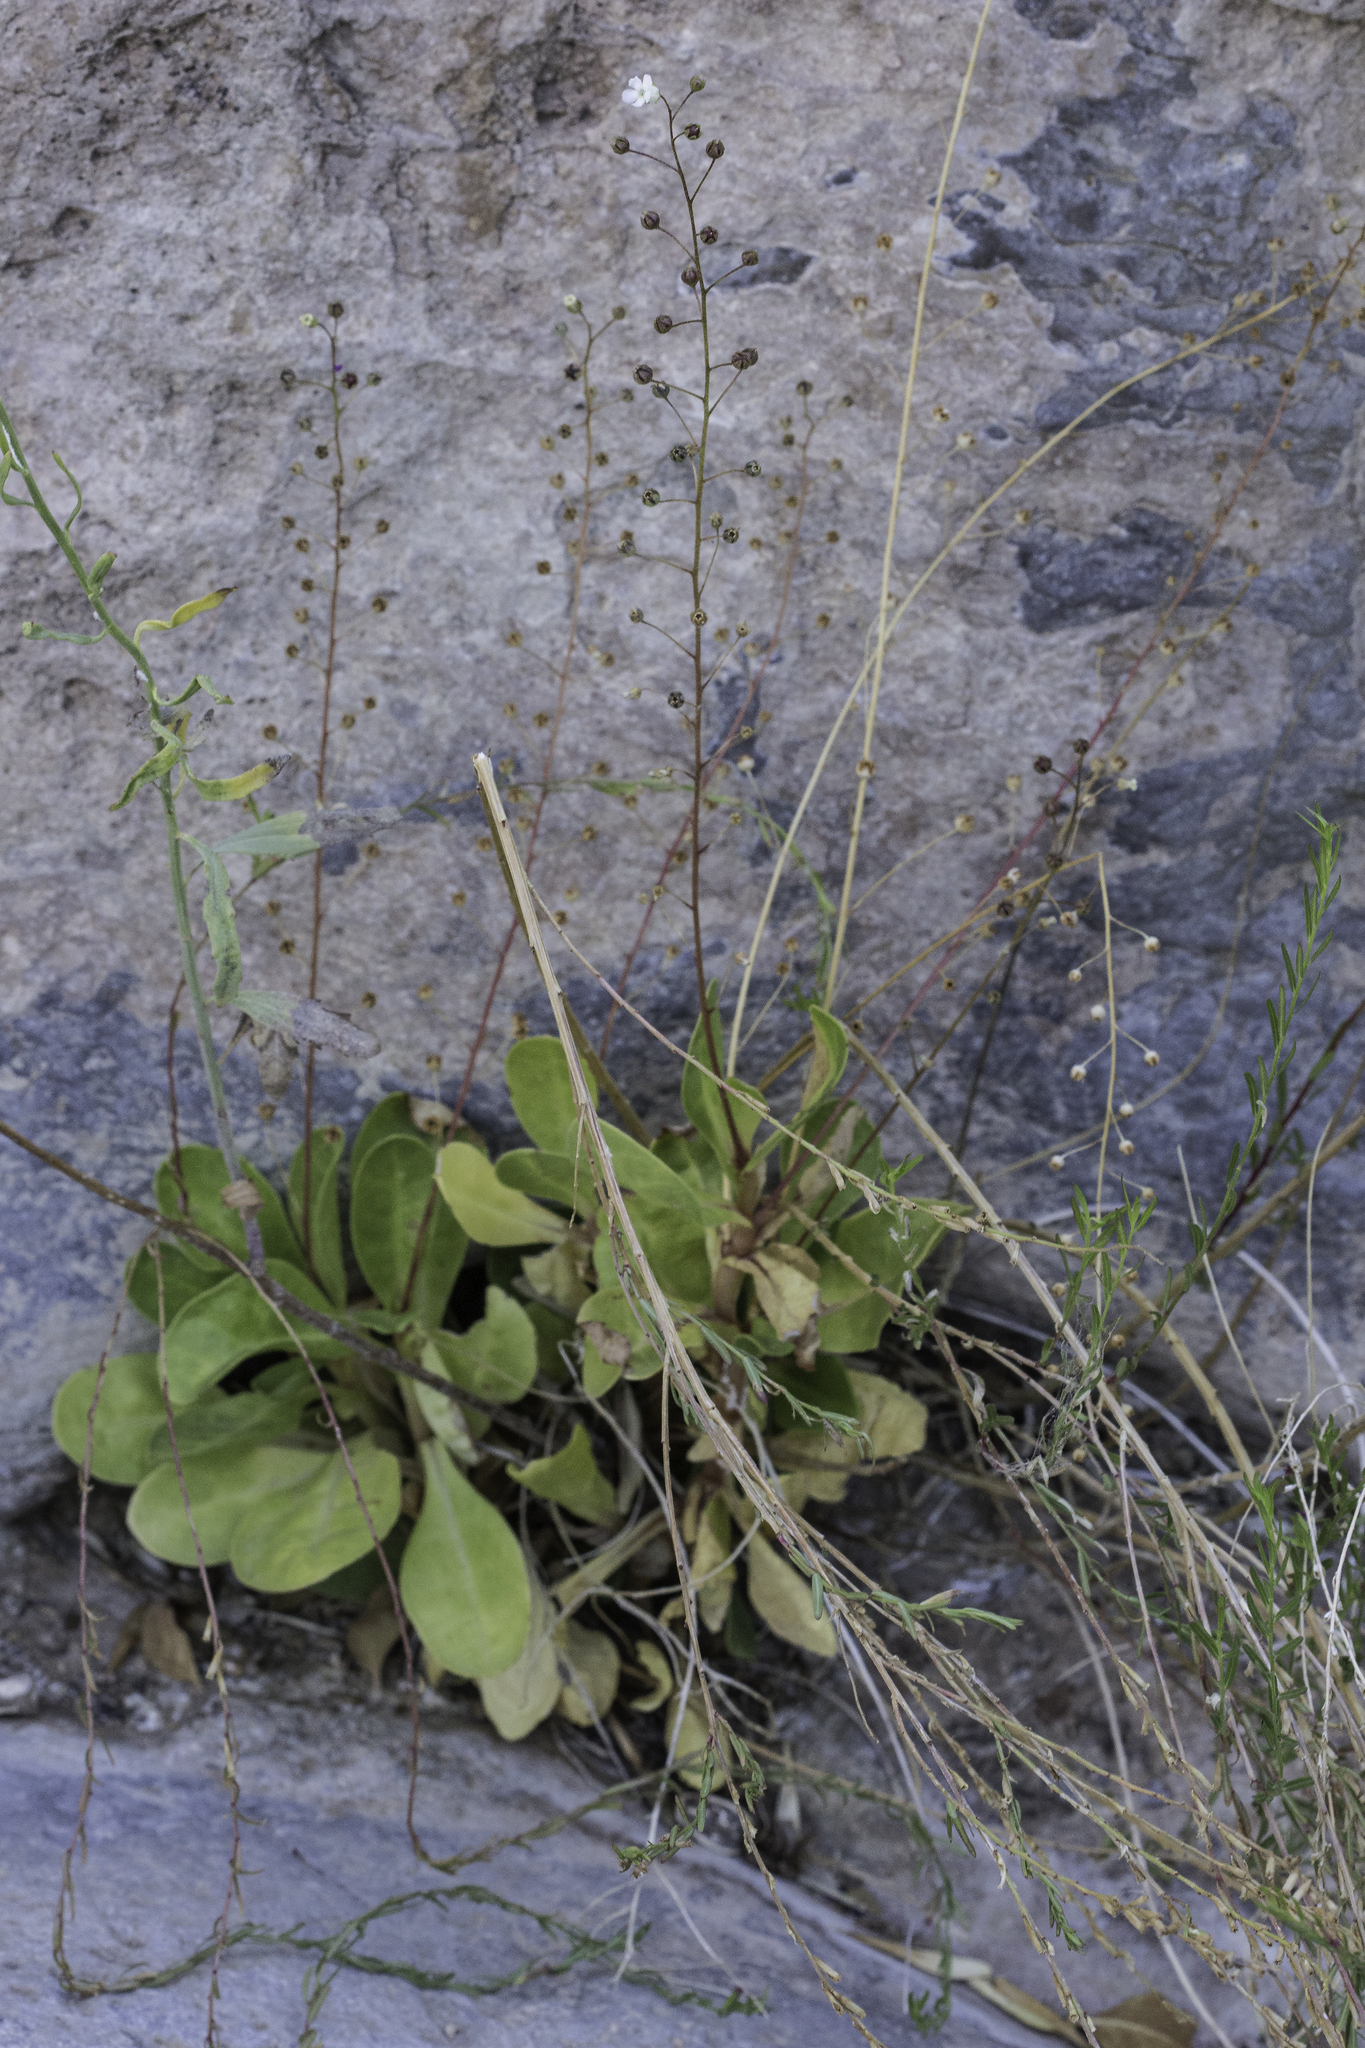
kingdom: Plantae
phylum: Tracheophyta
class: Magnoliopsida
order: Ericales
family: Primulaceae
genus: Samolus
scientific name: Samolus ebracteatus
